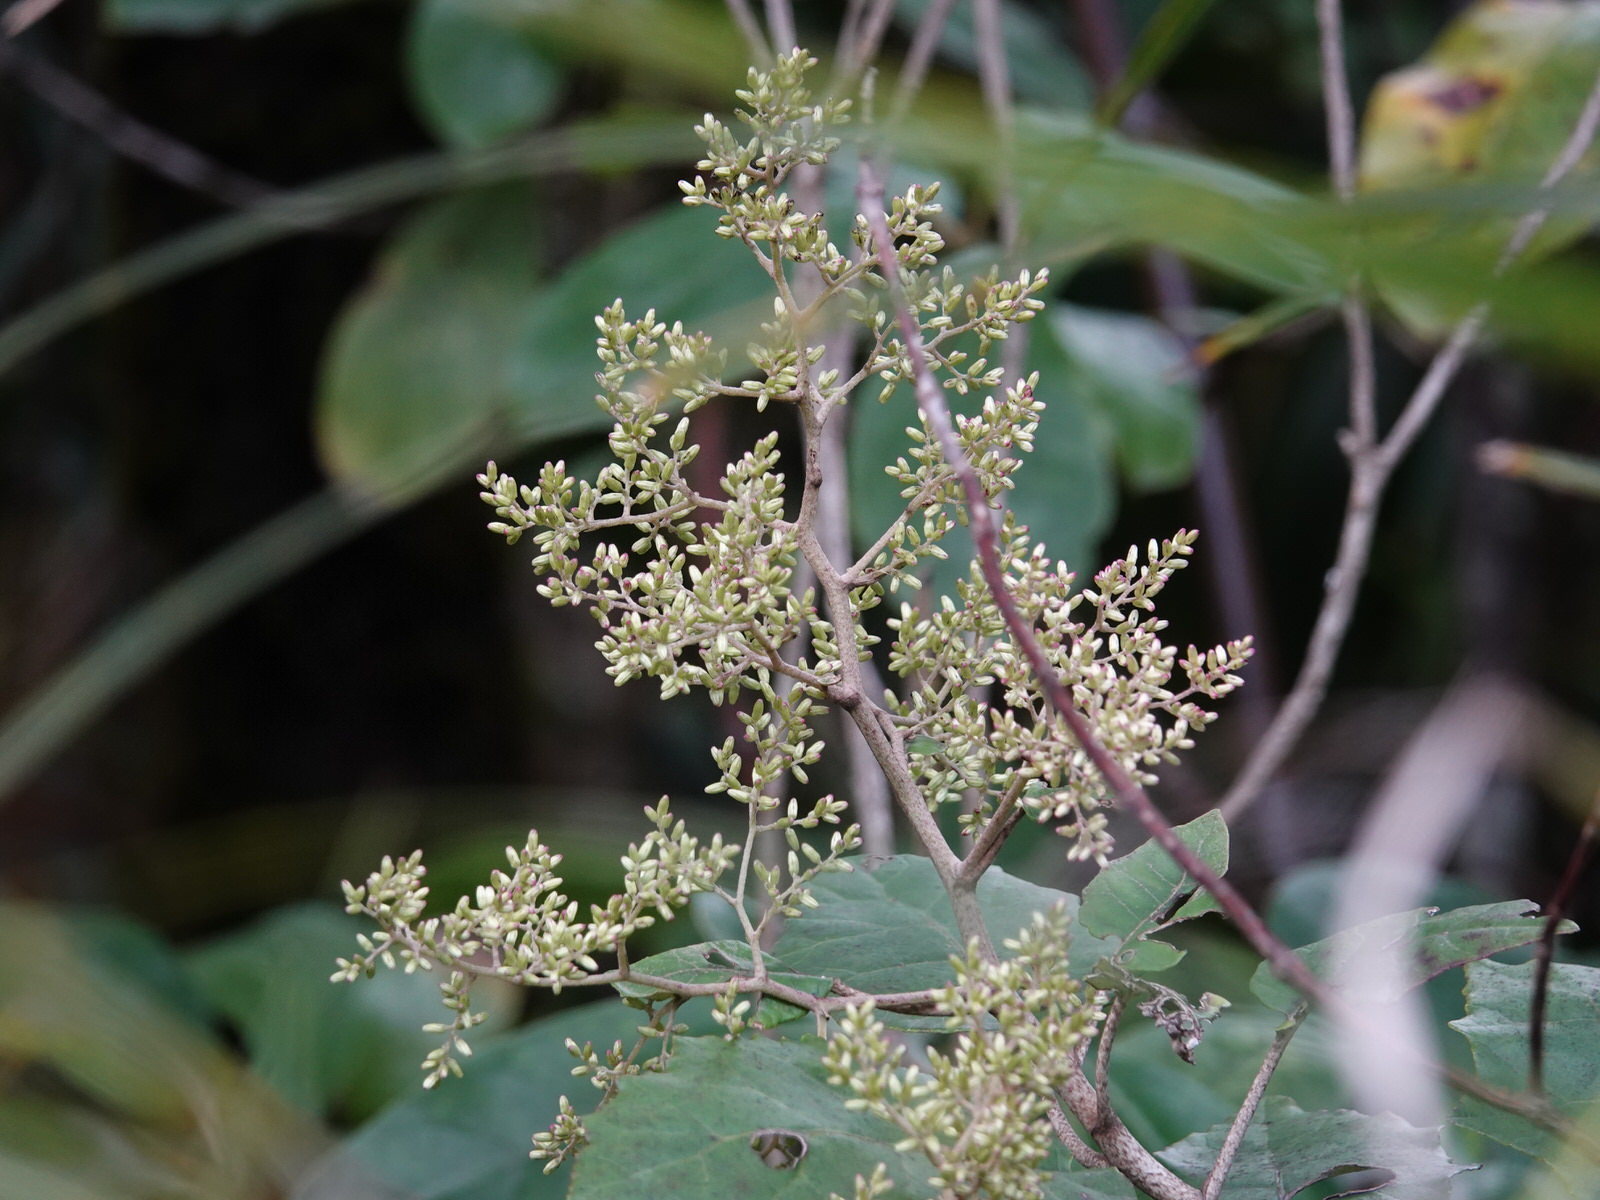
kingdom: Plantae
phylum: Tracheophyta
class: Magnoliopsida
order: Asterales
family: Asteraceae
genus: Brachyglottis
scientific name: Brachyglottis repanda
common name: Hedge ragwort
